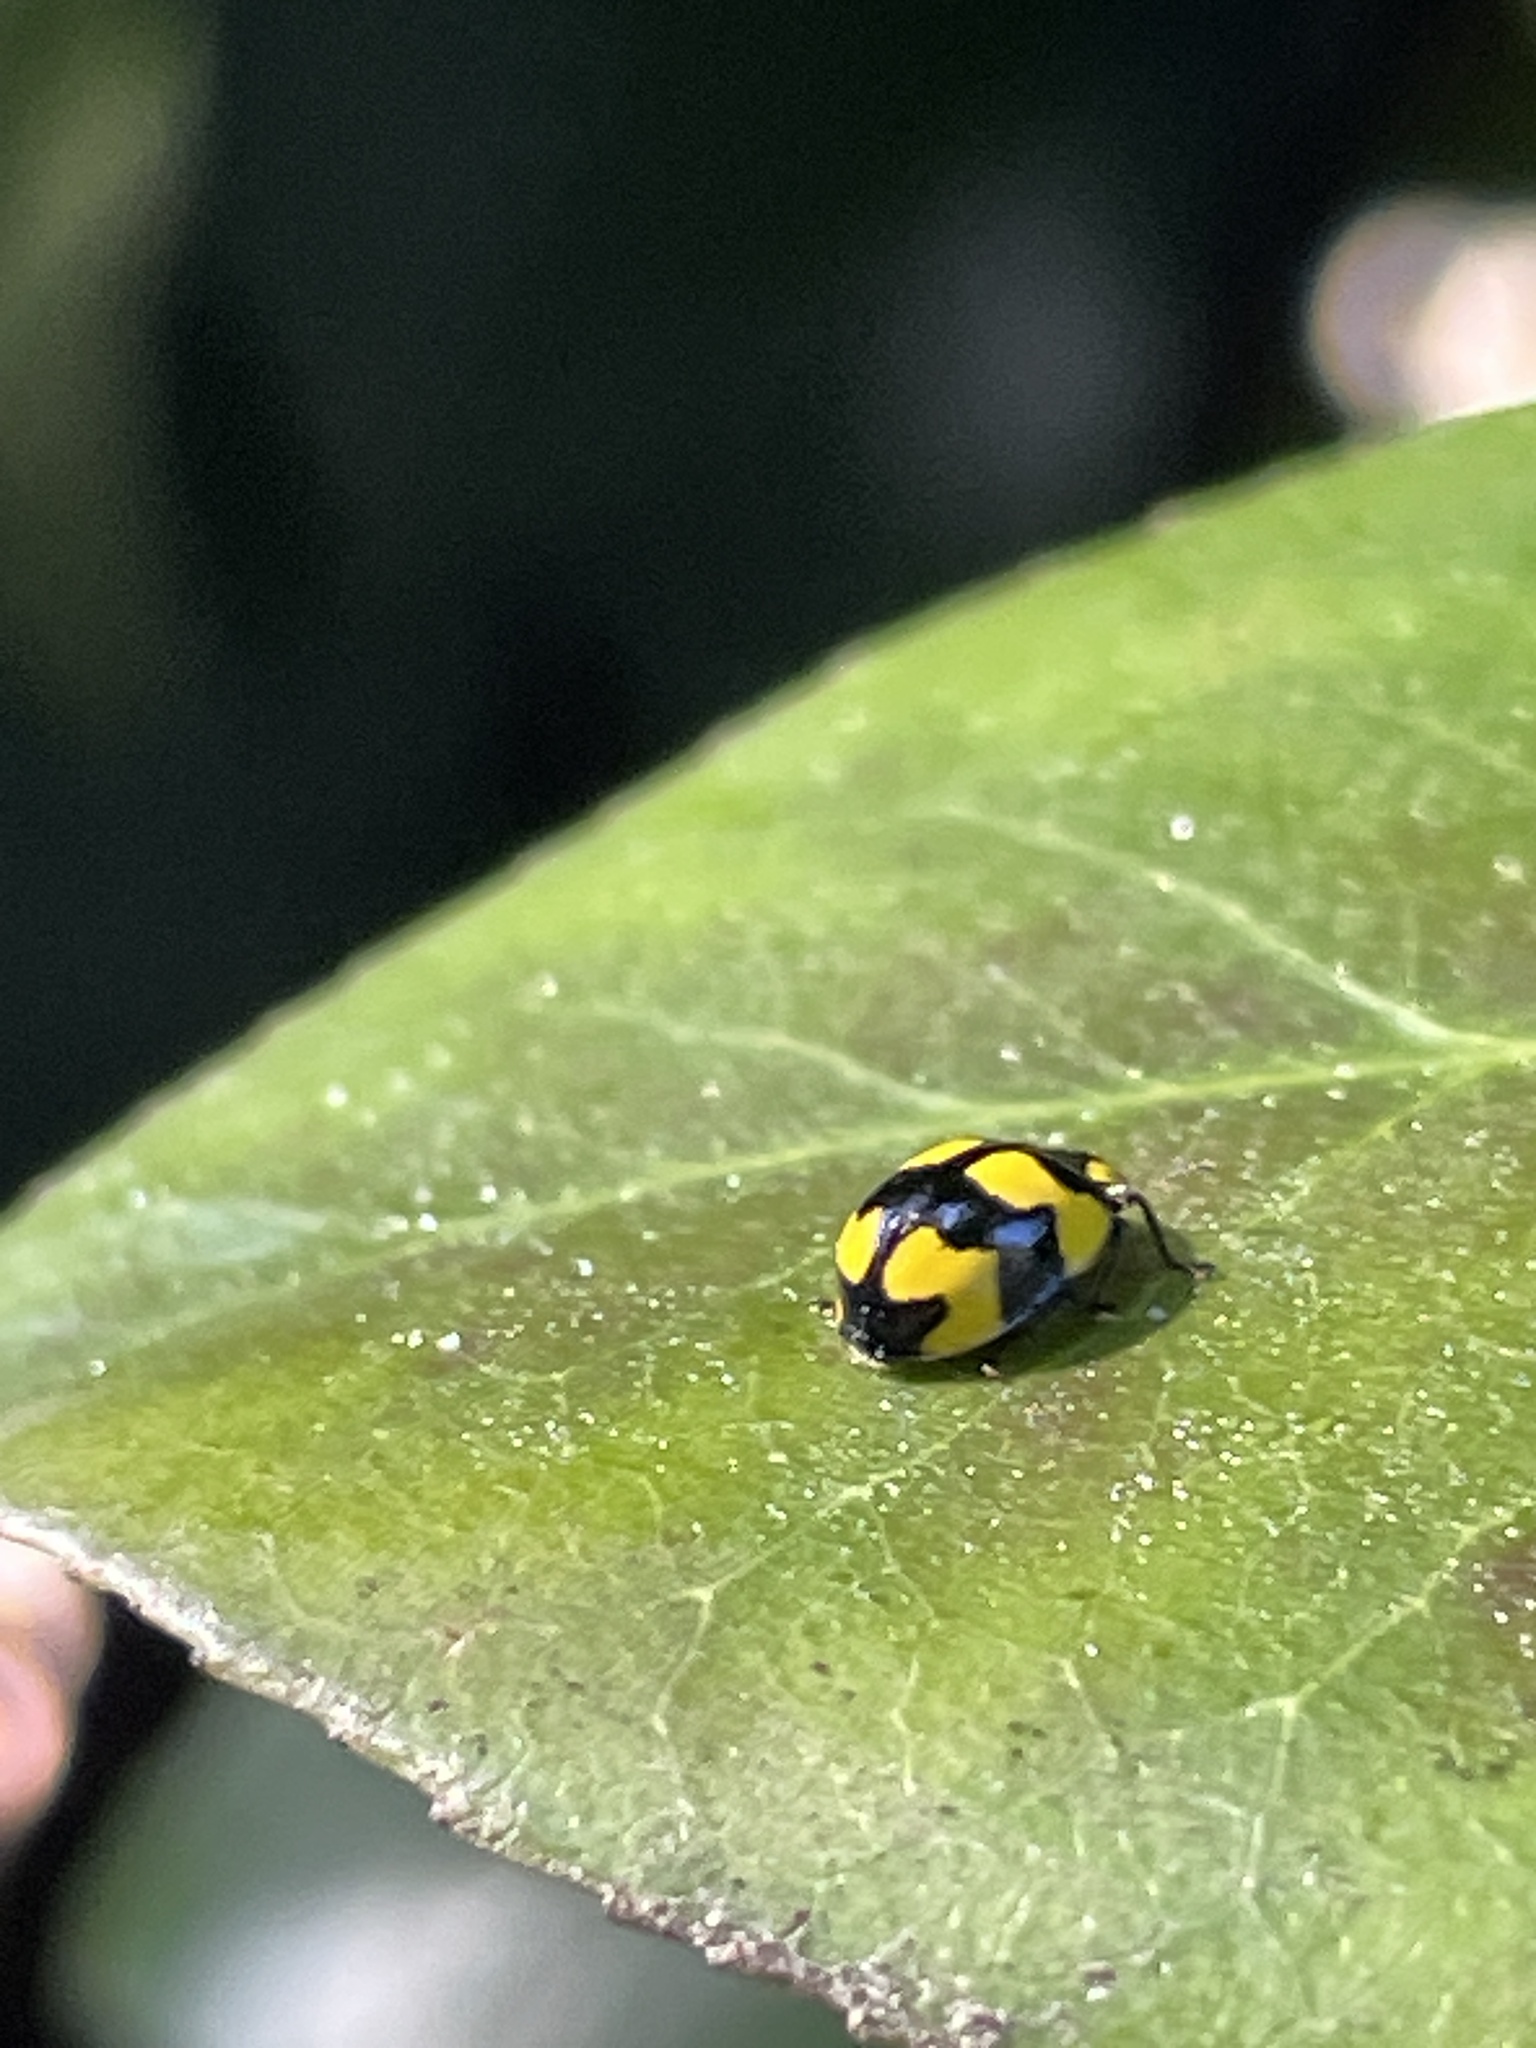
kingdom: Animalia
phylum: Arthropoda
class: Insecta
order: Coleoptera
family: Coccinellidae
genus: Illeis
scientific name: Illeis galbula
